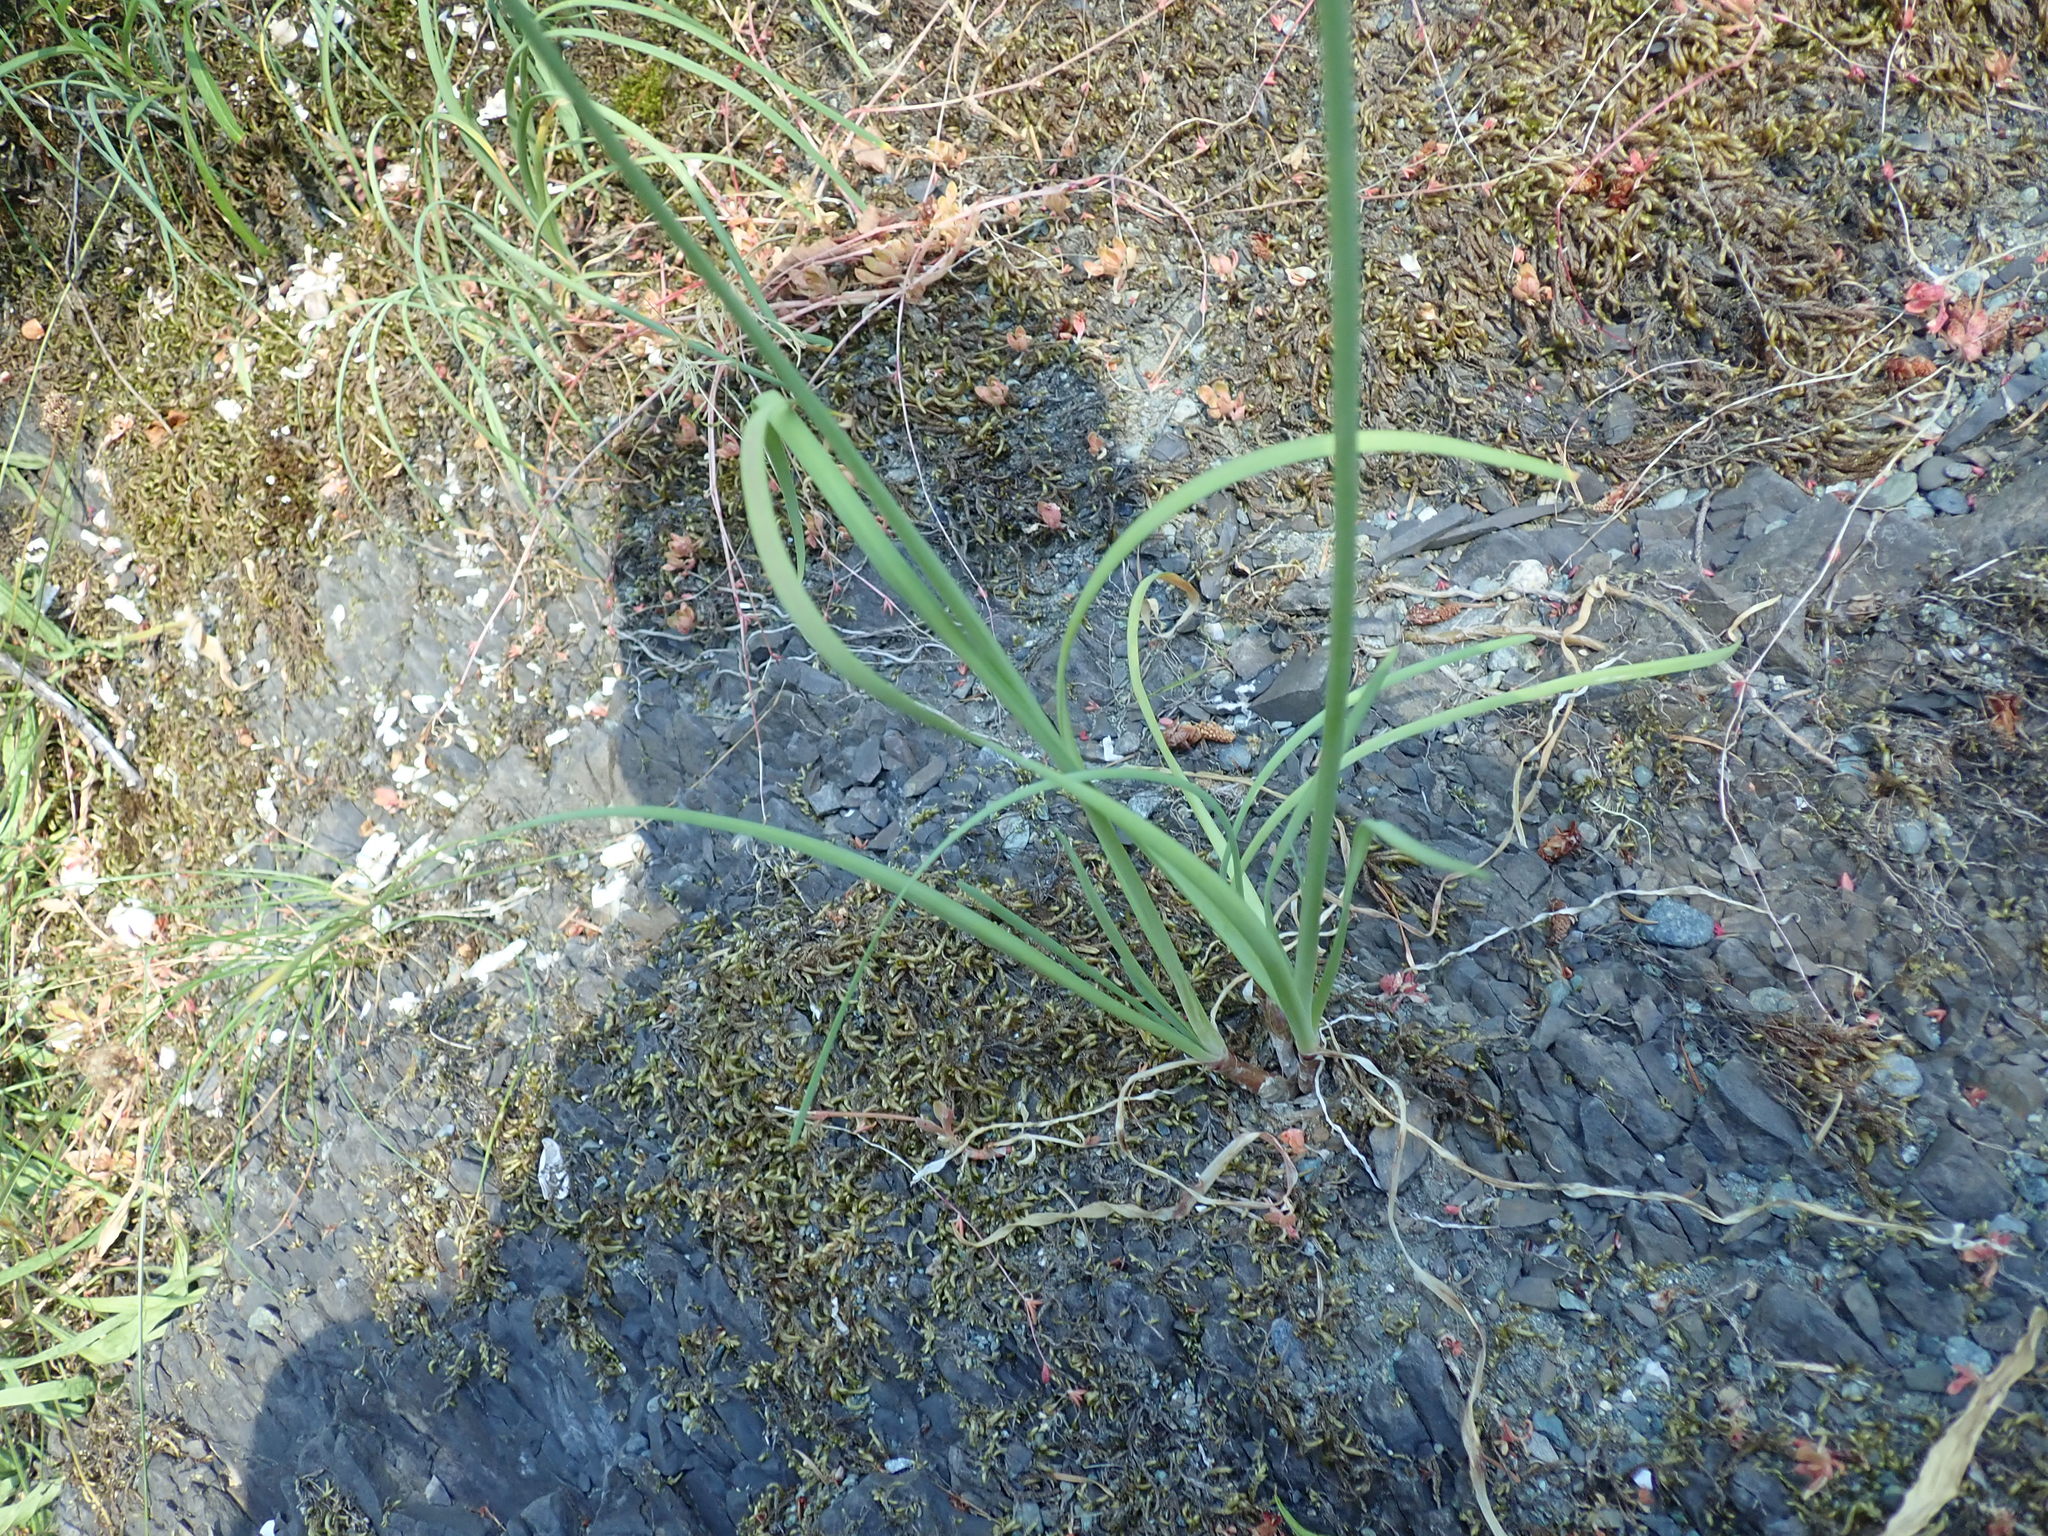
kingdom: Plantae
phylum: Tracheophyta
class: Liliopsida
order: Asparagales
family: Amaryllidaceae
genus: Allium
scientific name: Allium cernuum
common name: Nodding onion
